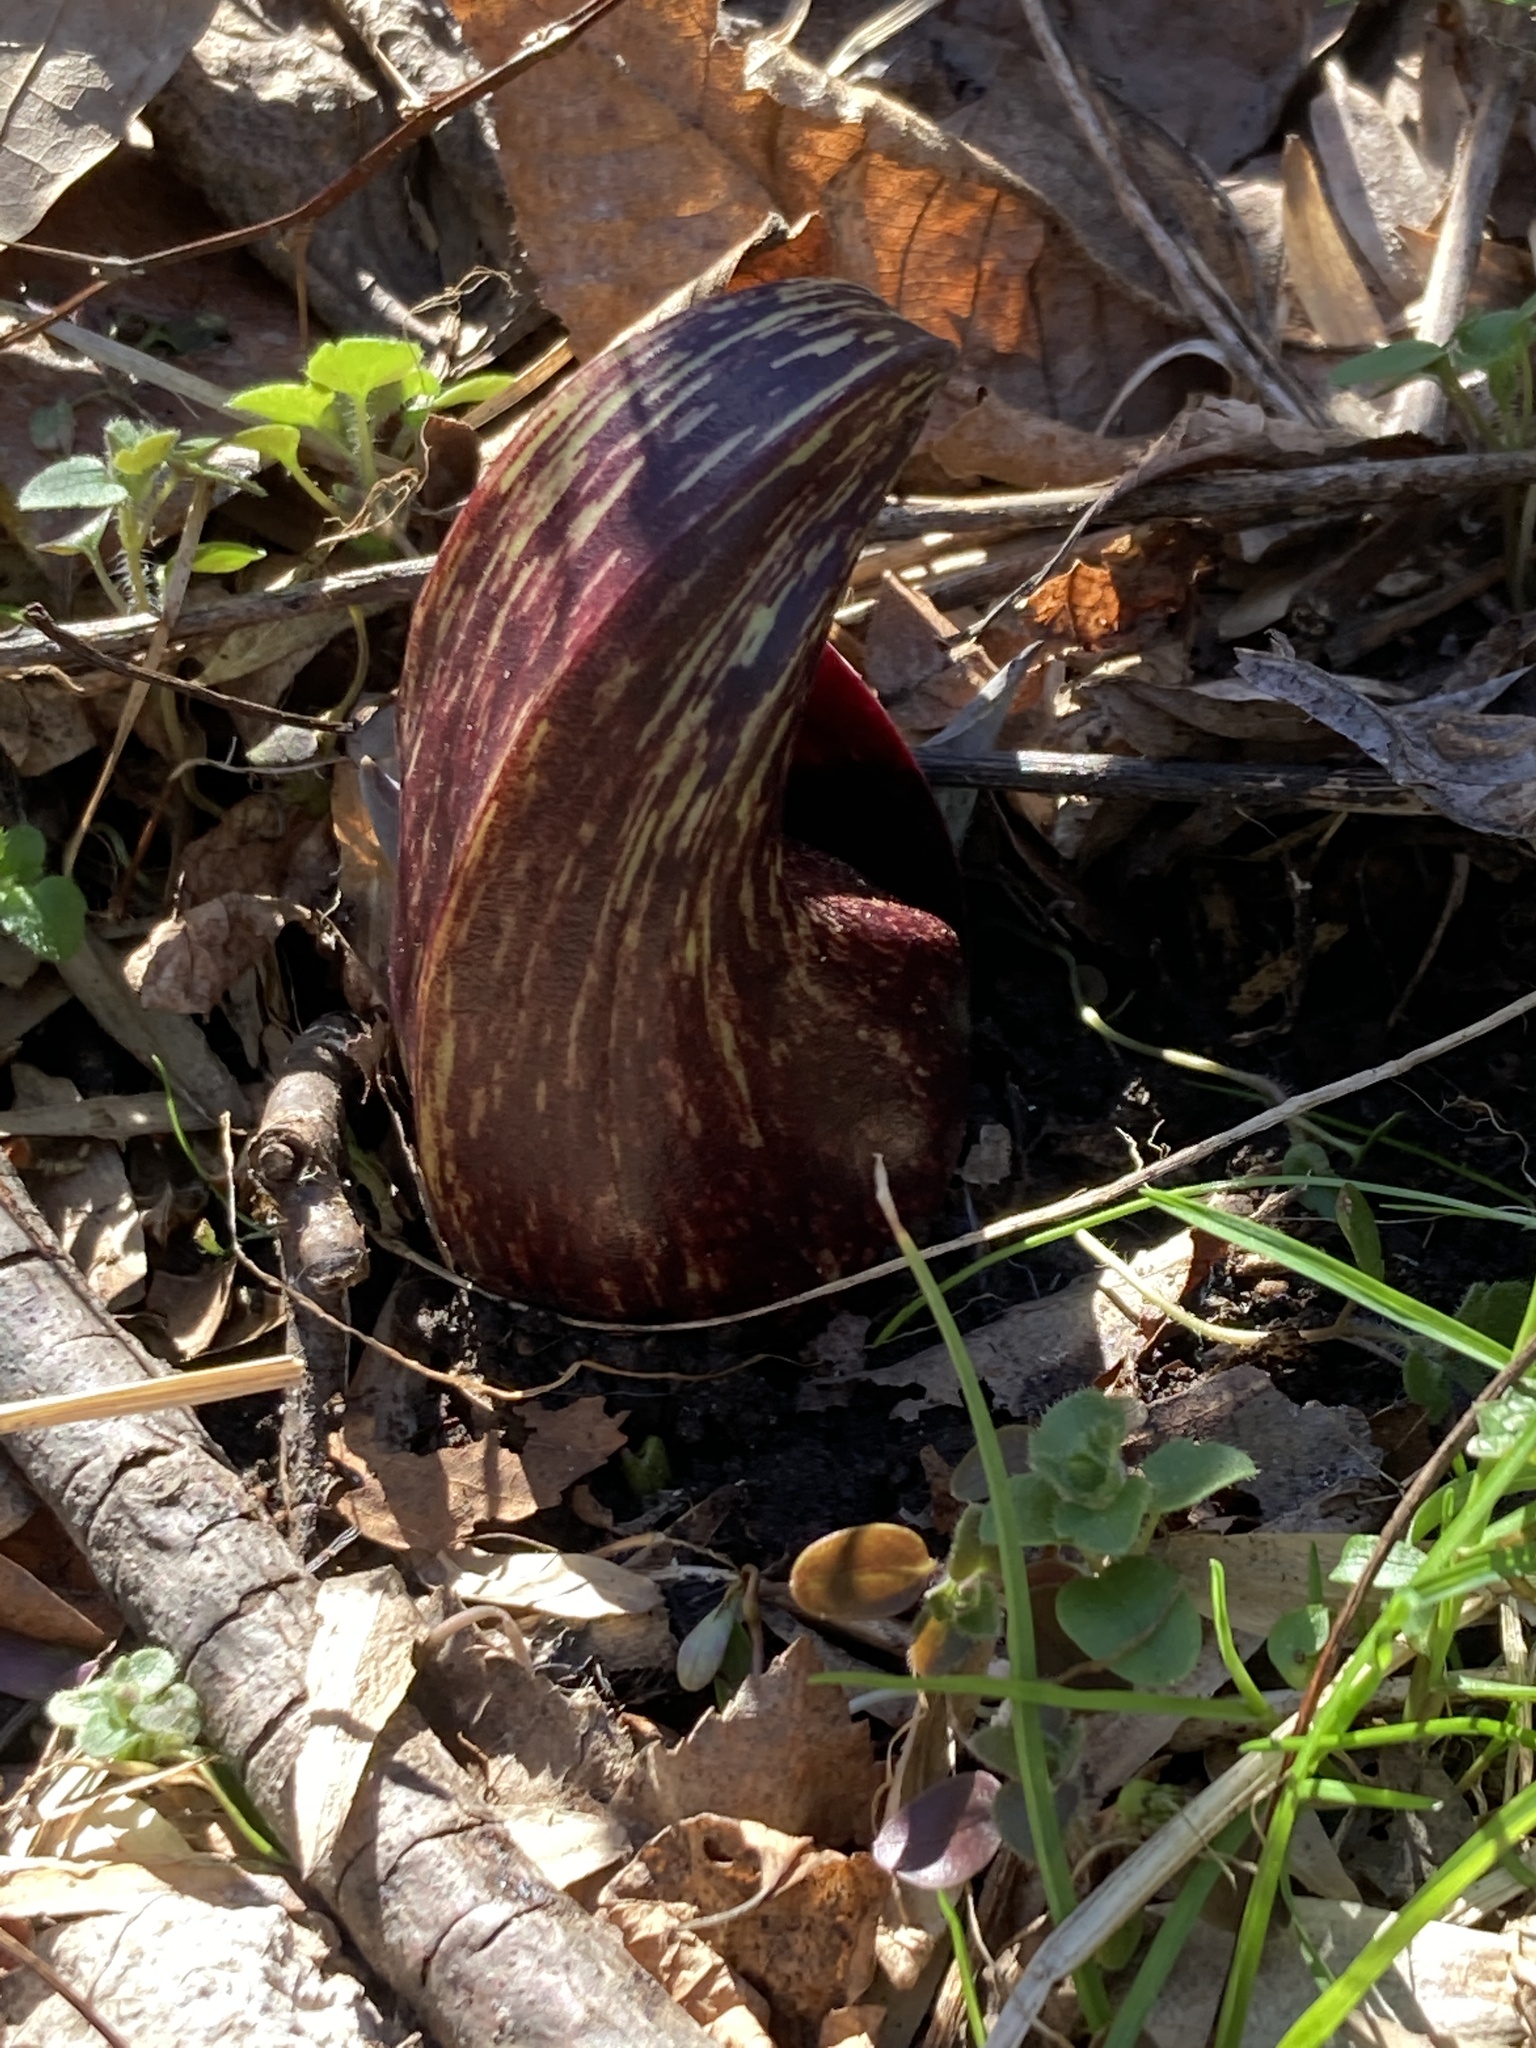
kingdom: Plantae
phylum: Tracheophyta
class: Liliopsida
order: Alismatales
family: Araceae
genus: Symplocarpus
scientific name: Symplocarpus foetidus
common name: Eastern skunk cabbage
